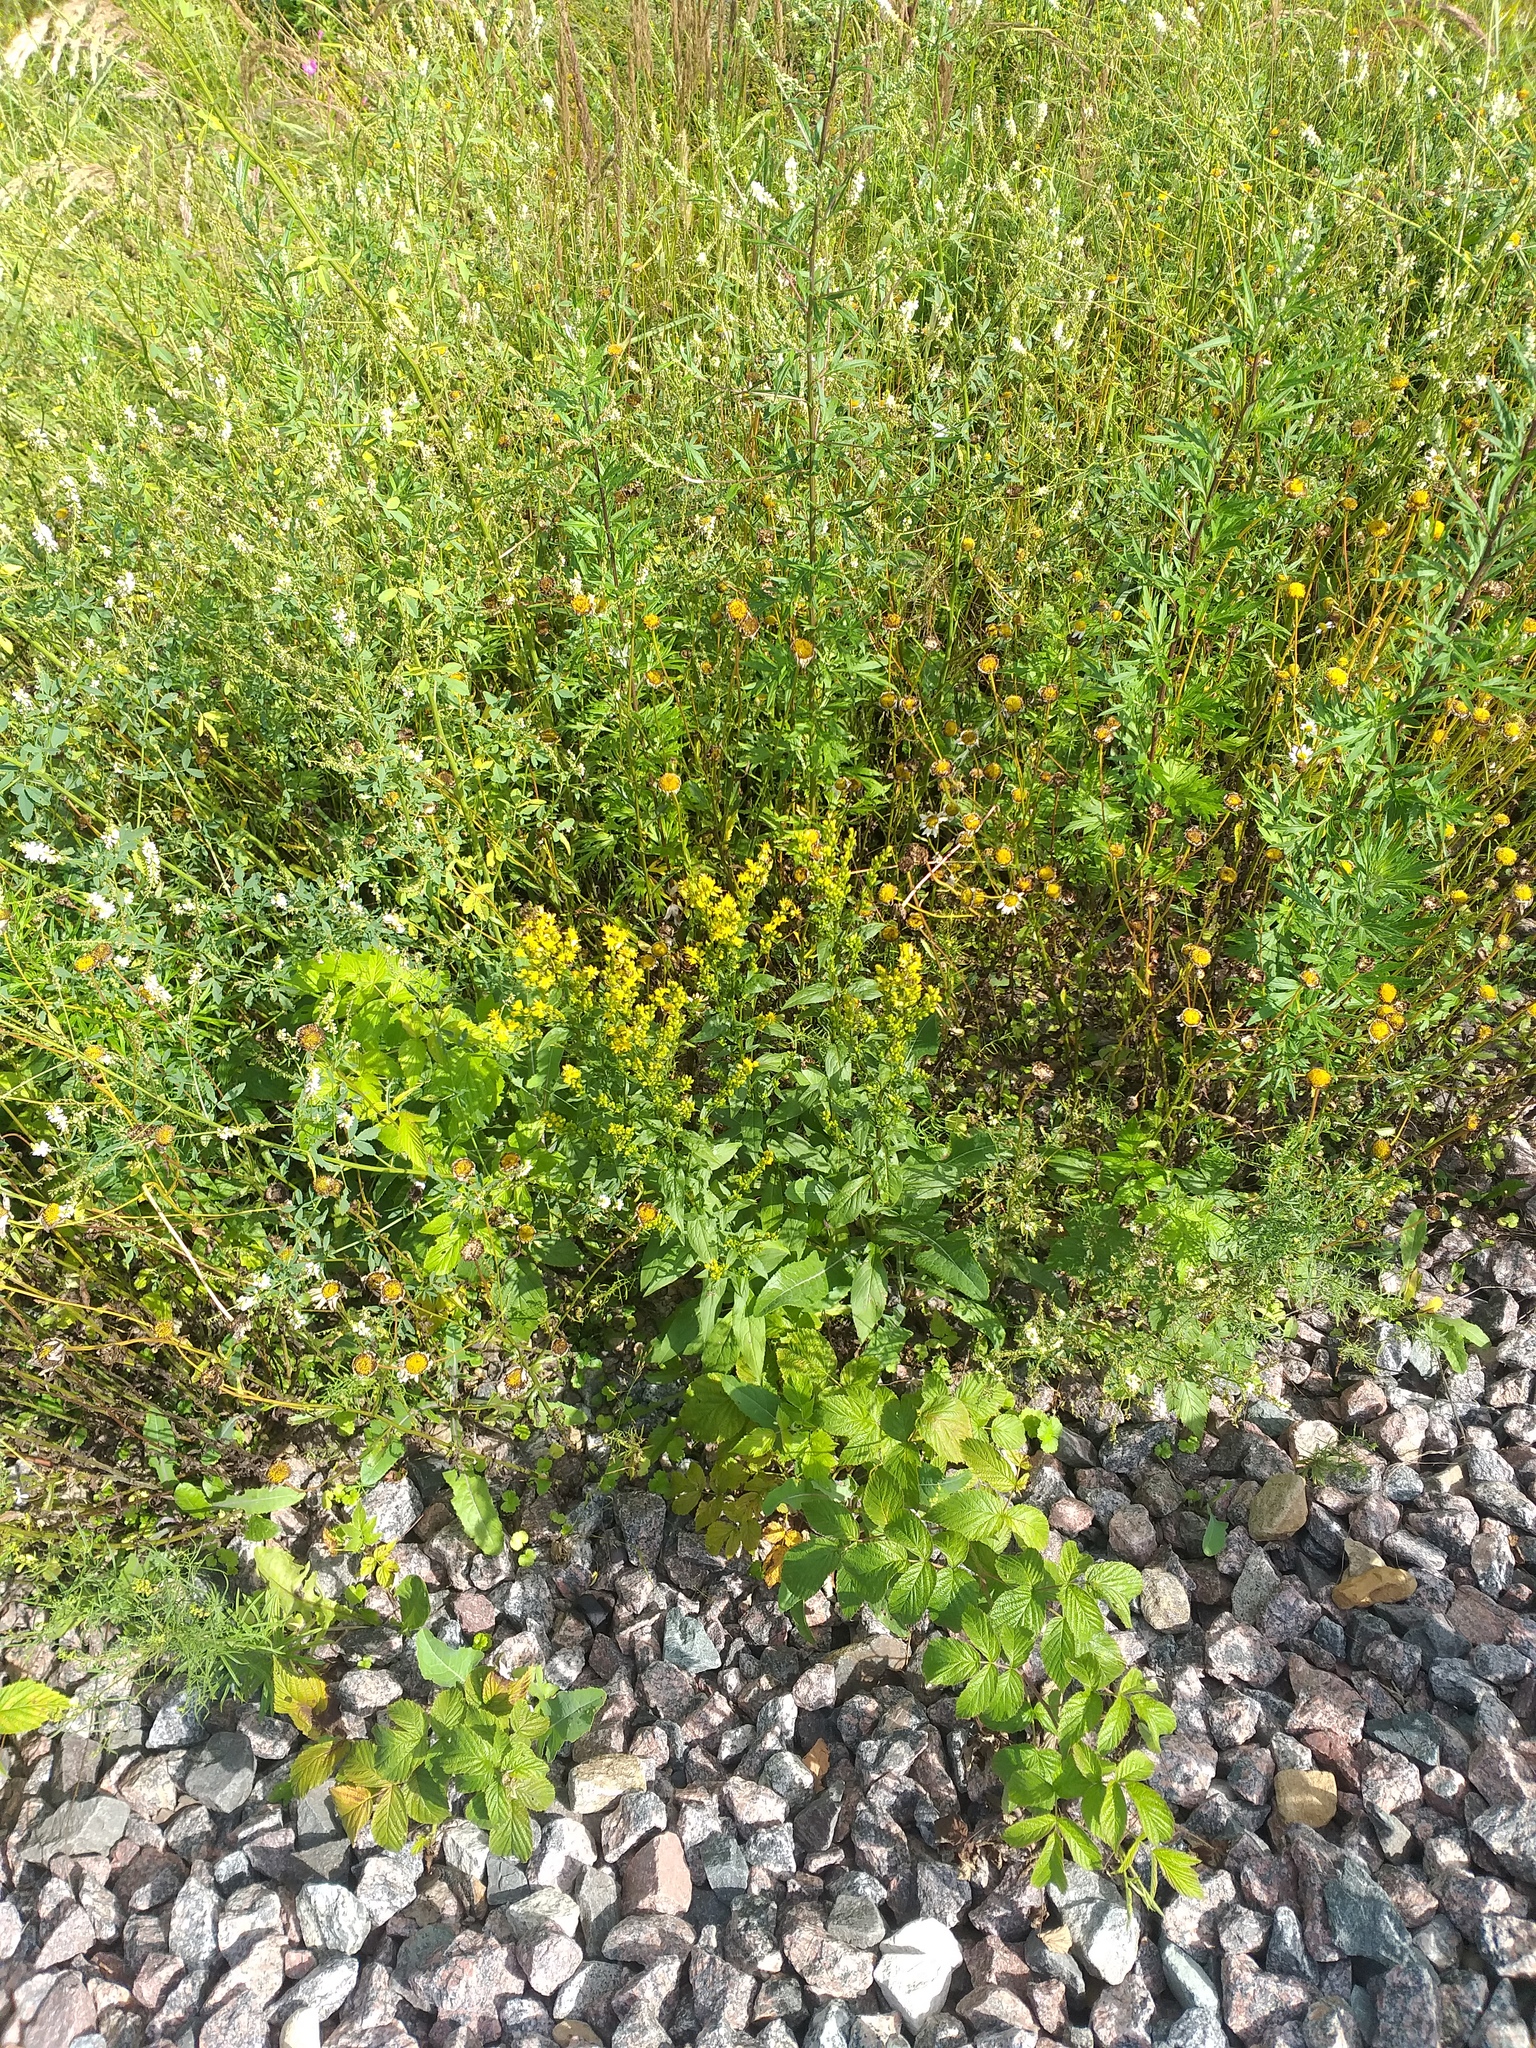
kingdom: Plantae
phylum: Tracheophyta
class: Magnoliopsida
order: Asterales
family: Asteraceae
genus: Solidago
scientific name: Solidago virgaurea
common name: Goldenrod
